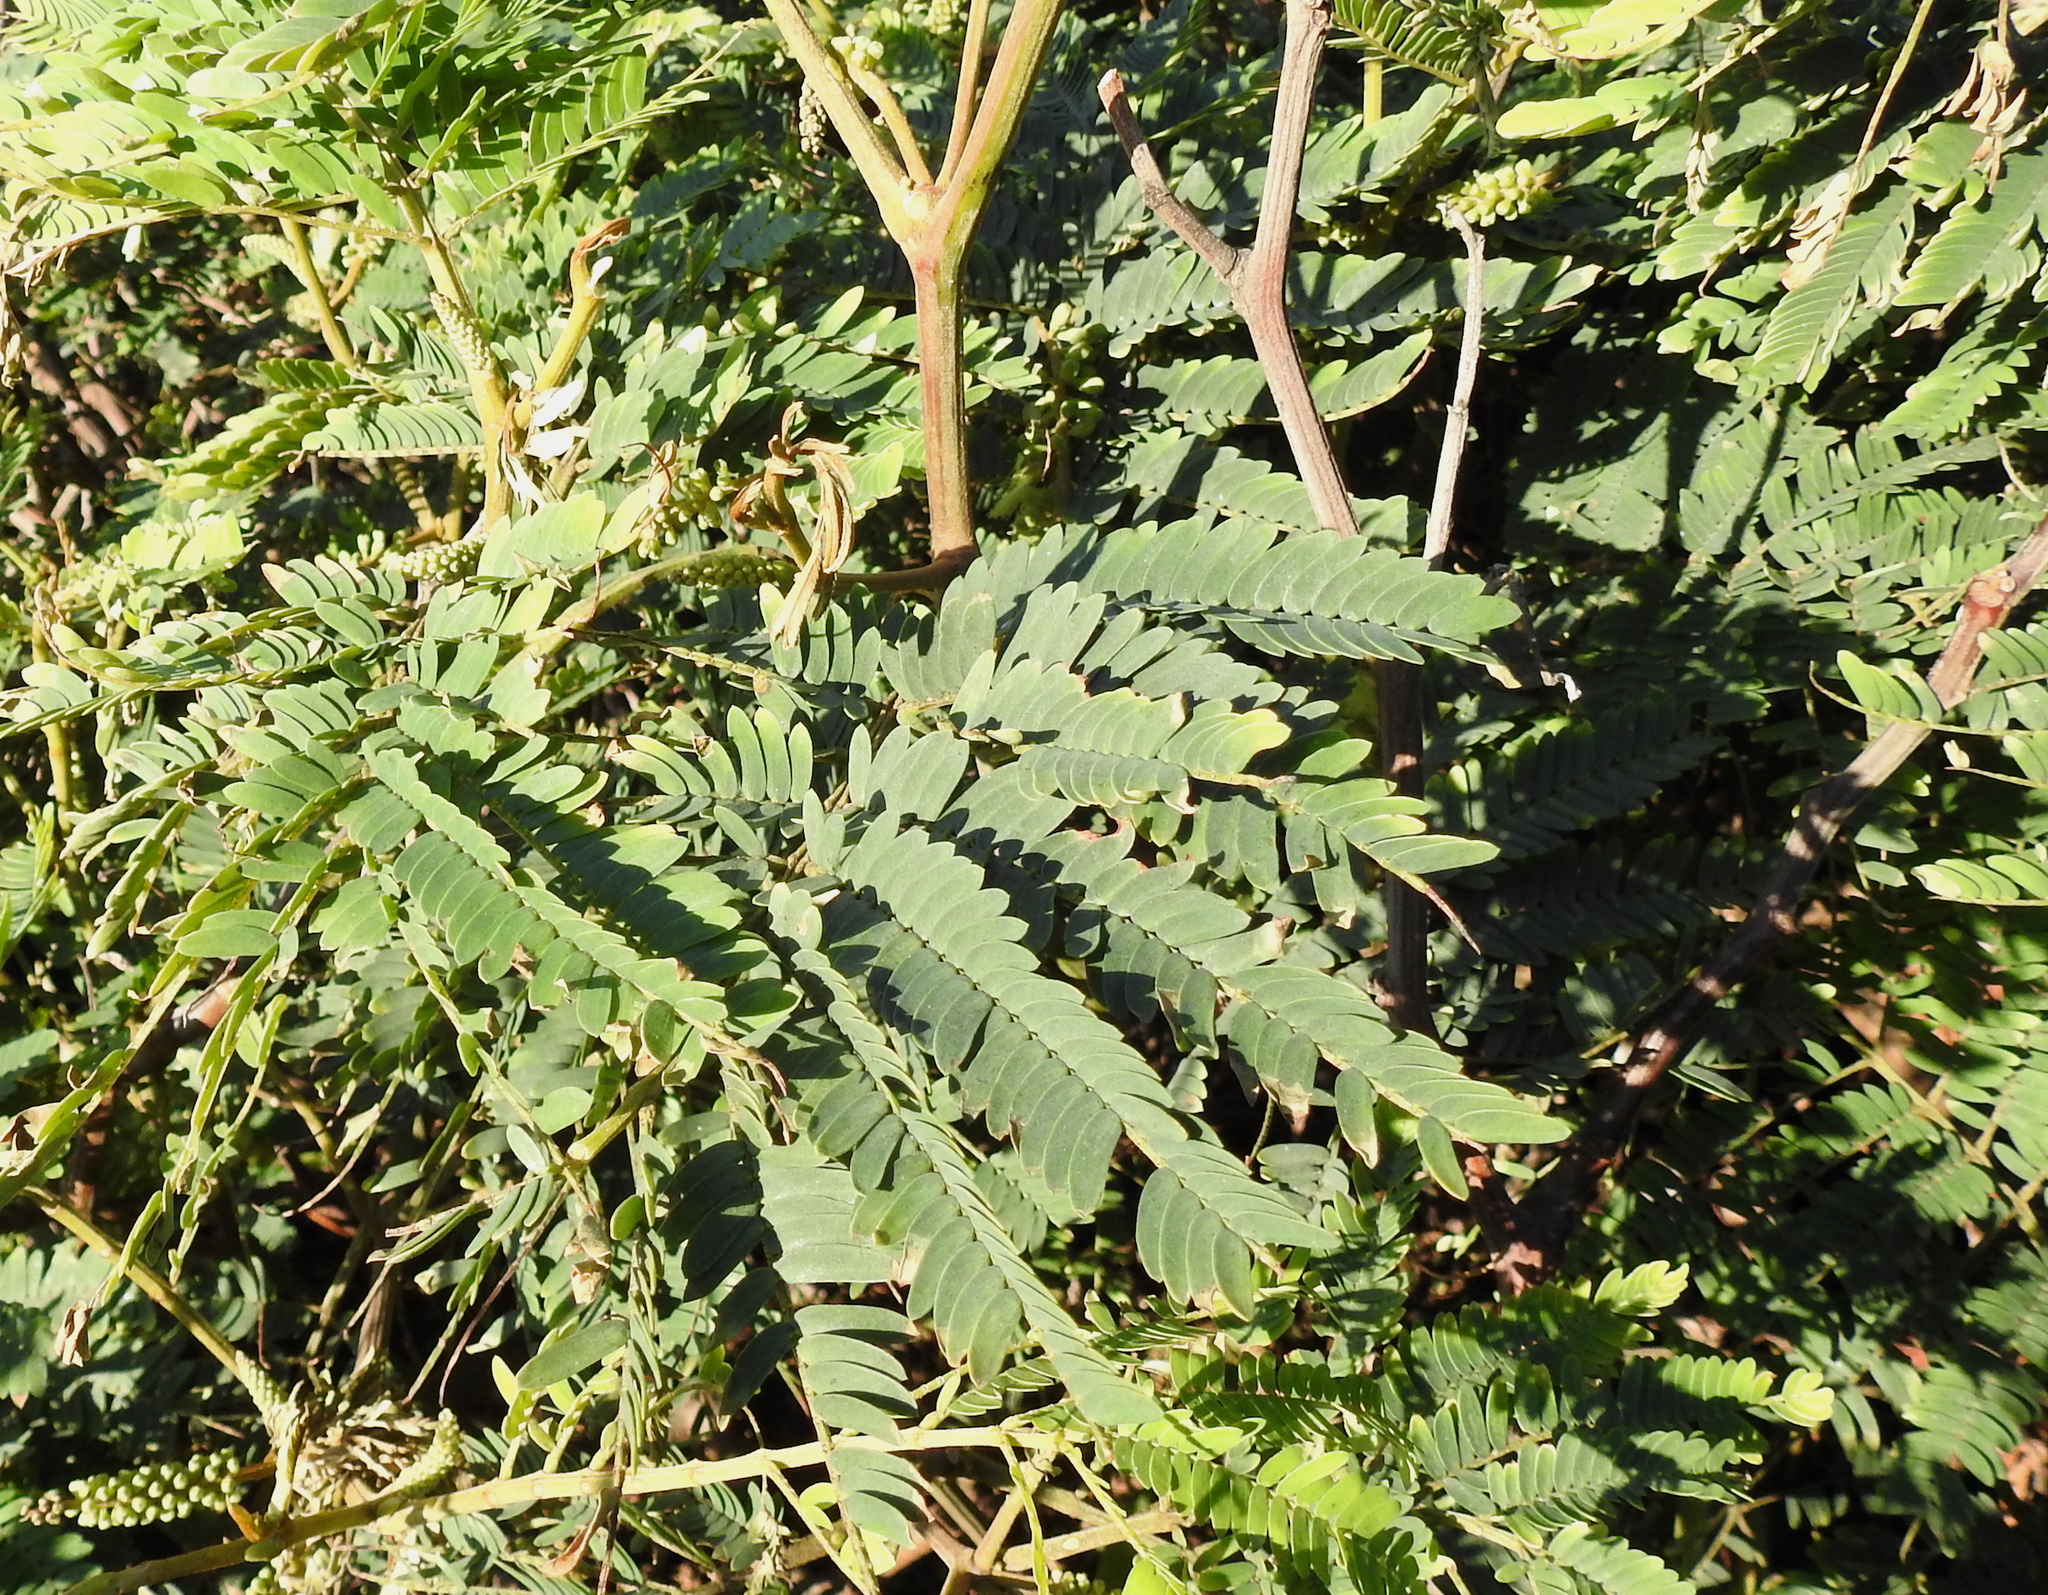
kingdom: Plantae
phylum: Tracheophyta
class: Magnoliopsida
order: Fabales
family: Fabaceae
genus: Paraserianthes
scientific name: Paraserianthes lophantha
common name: Plume albizia
